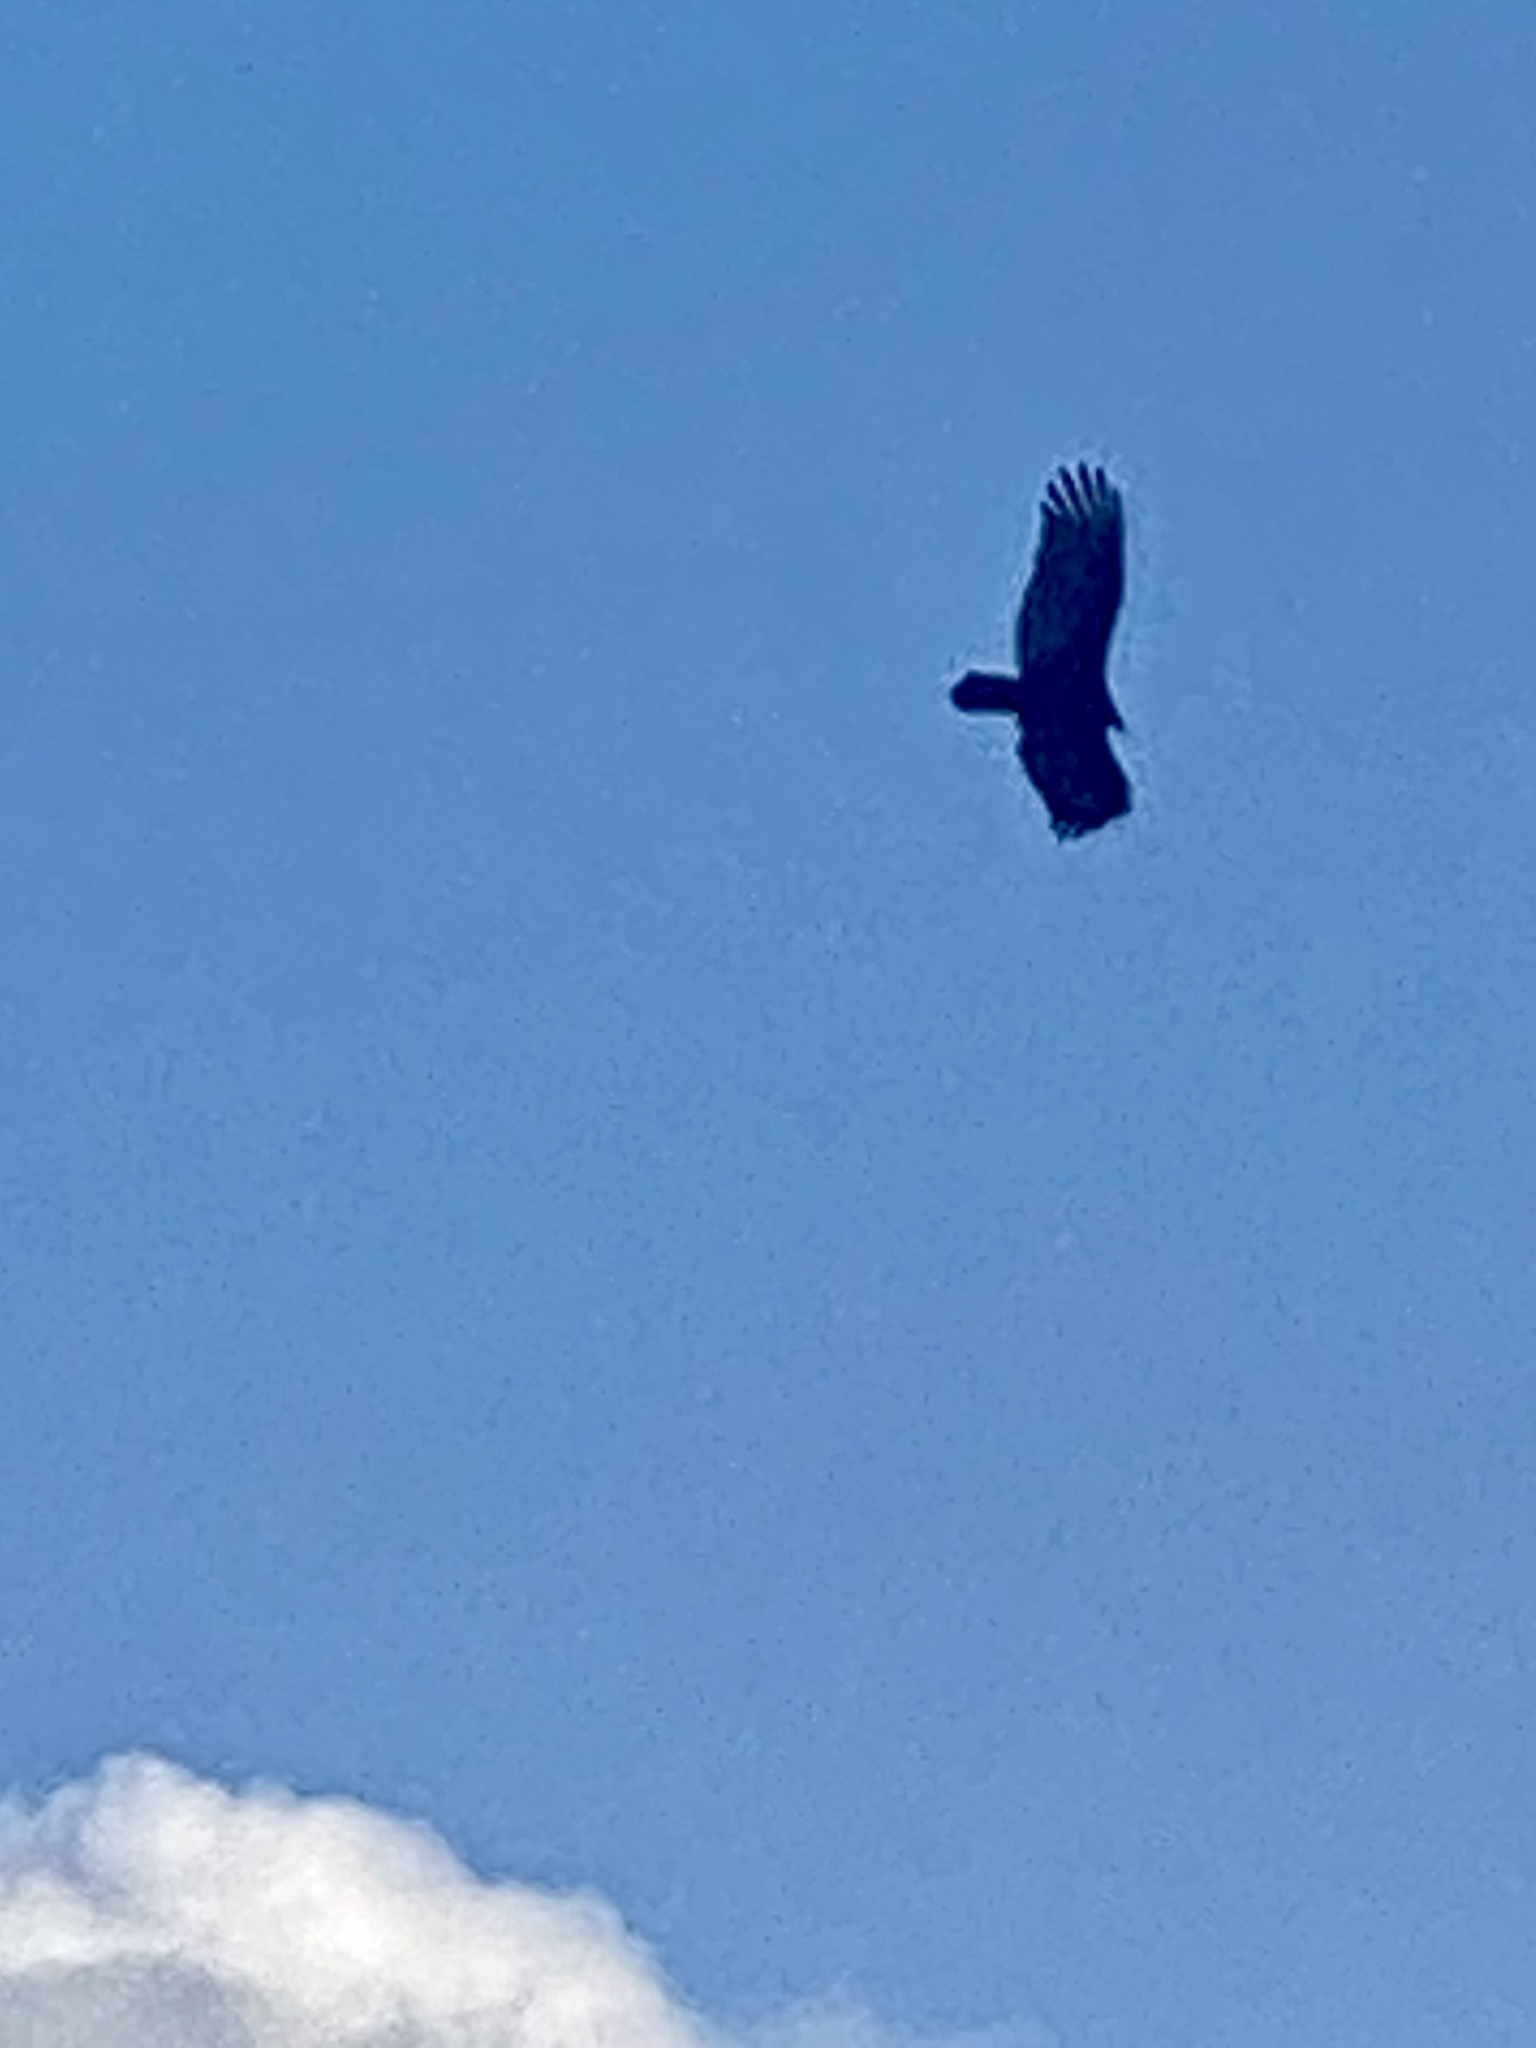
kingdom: Animalia
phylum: Chordata
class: Aves
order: Accipitriformes
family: Cathartidae
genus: Cathartes
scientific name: Cathartes aura
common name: Turkey vulture
